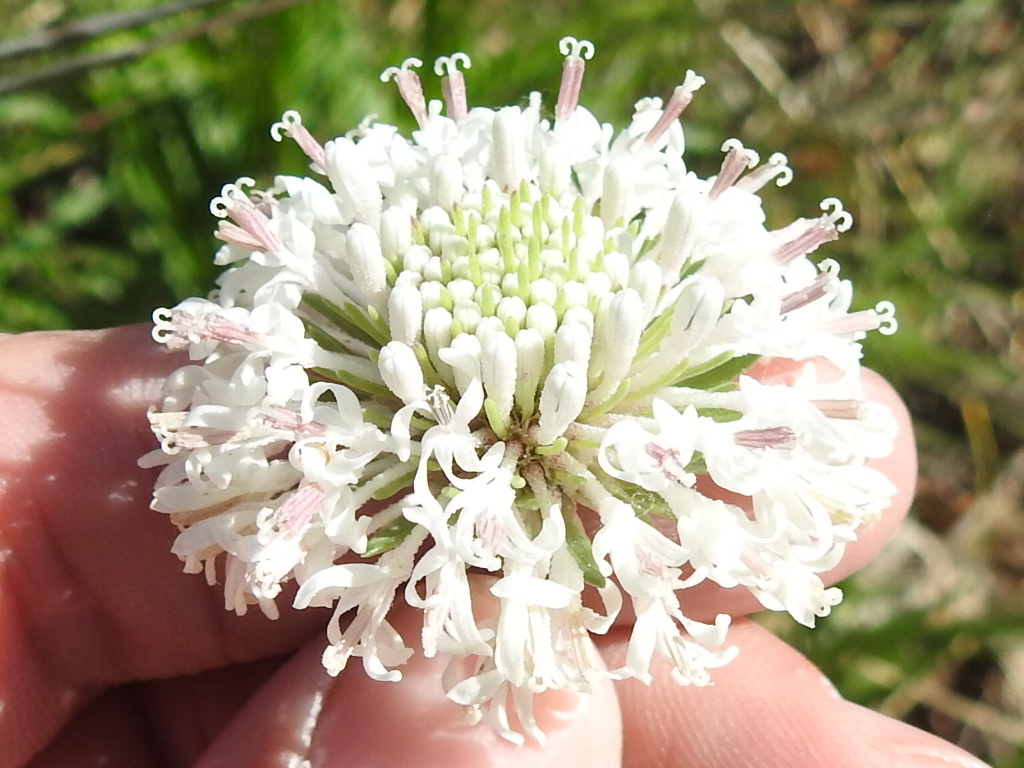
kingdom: Plantae
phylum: Tracheophyta
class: Magnoliopsida
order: Asterales
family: Asteraceae
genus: Marshallia
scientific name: Marshallia caespitosa
